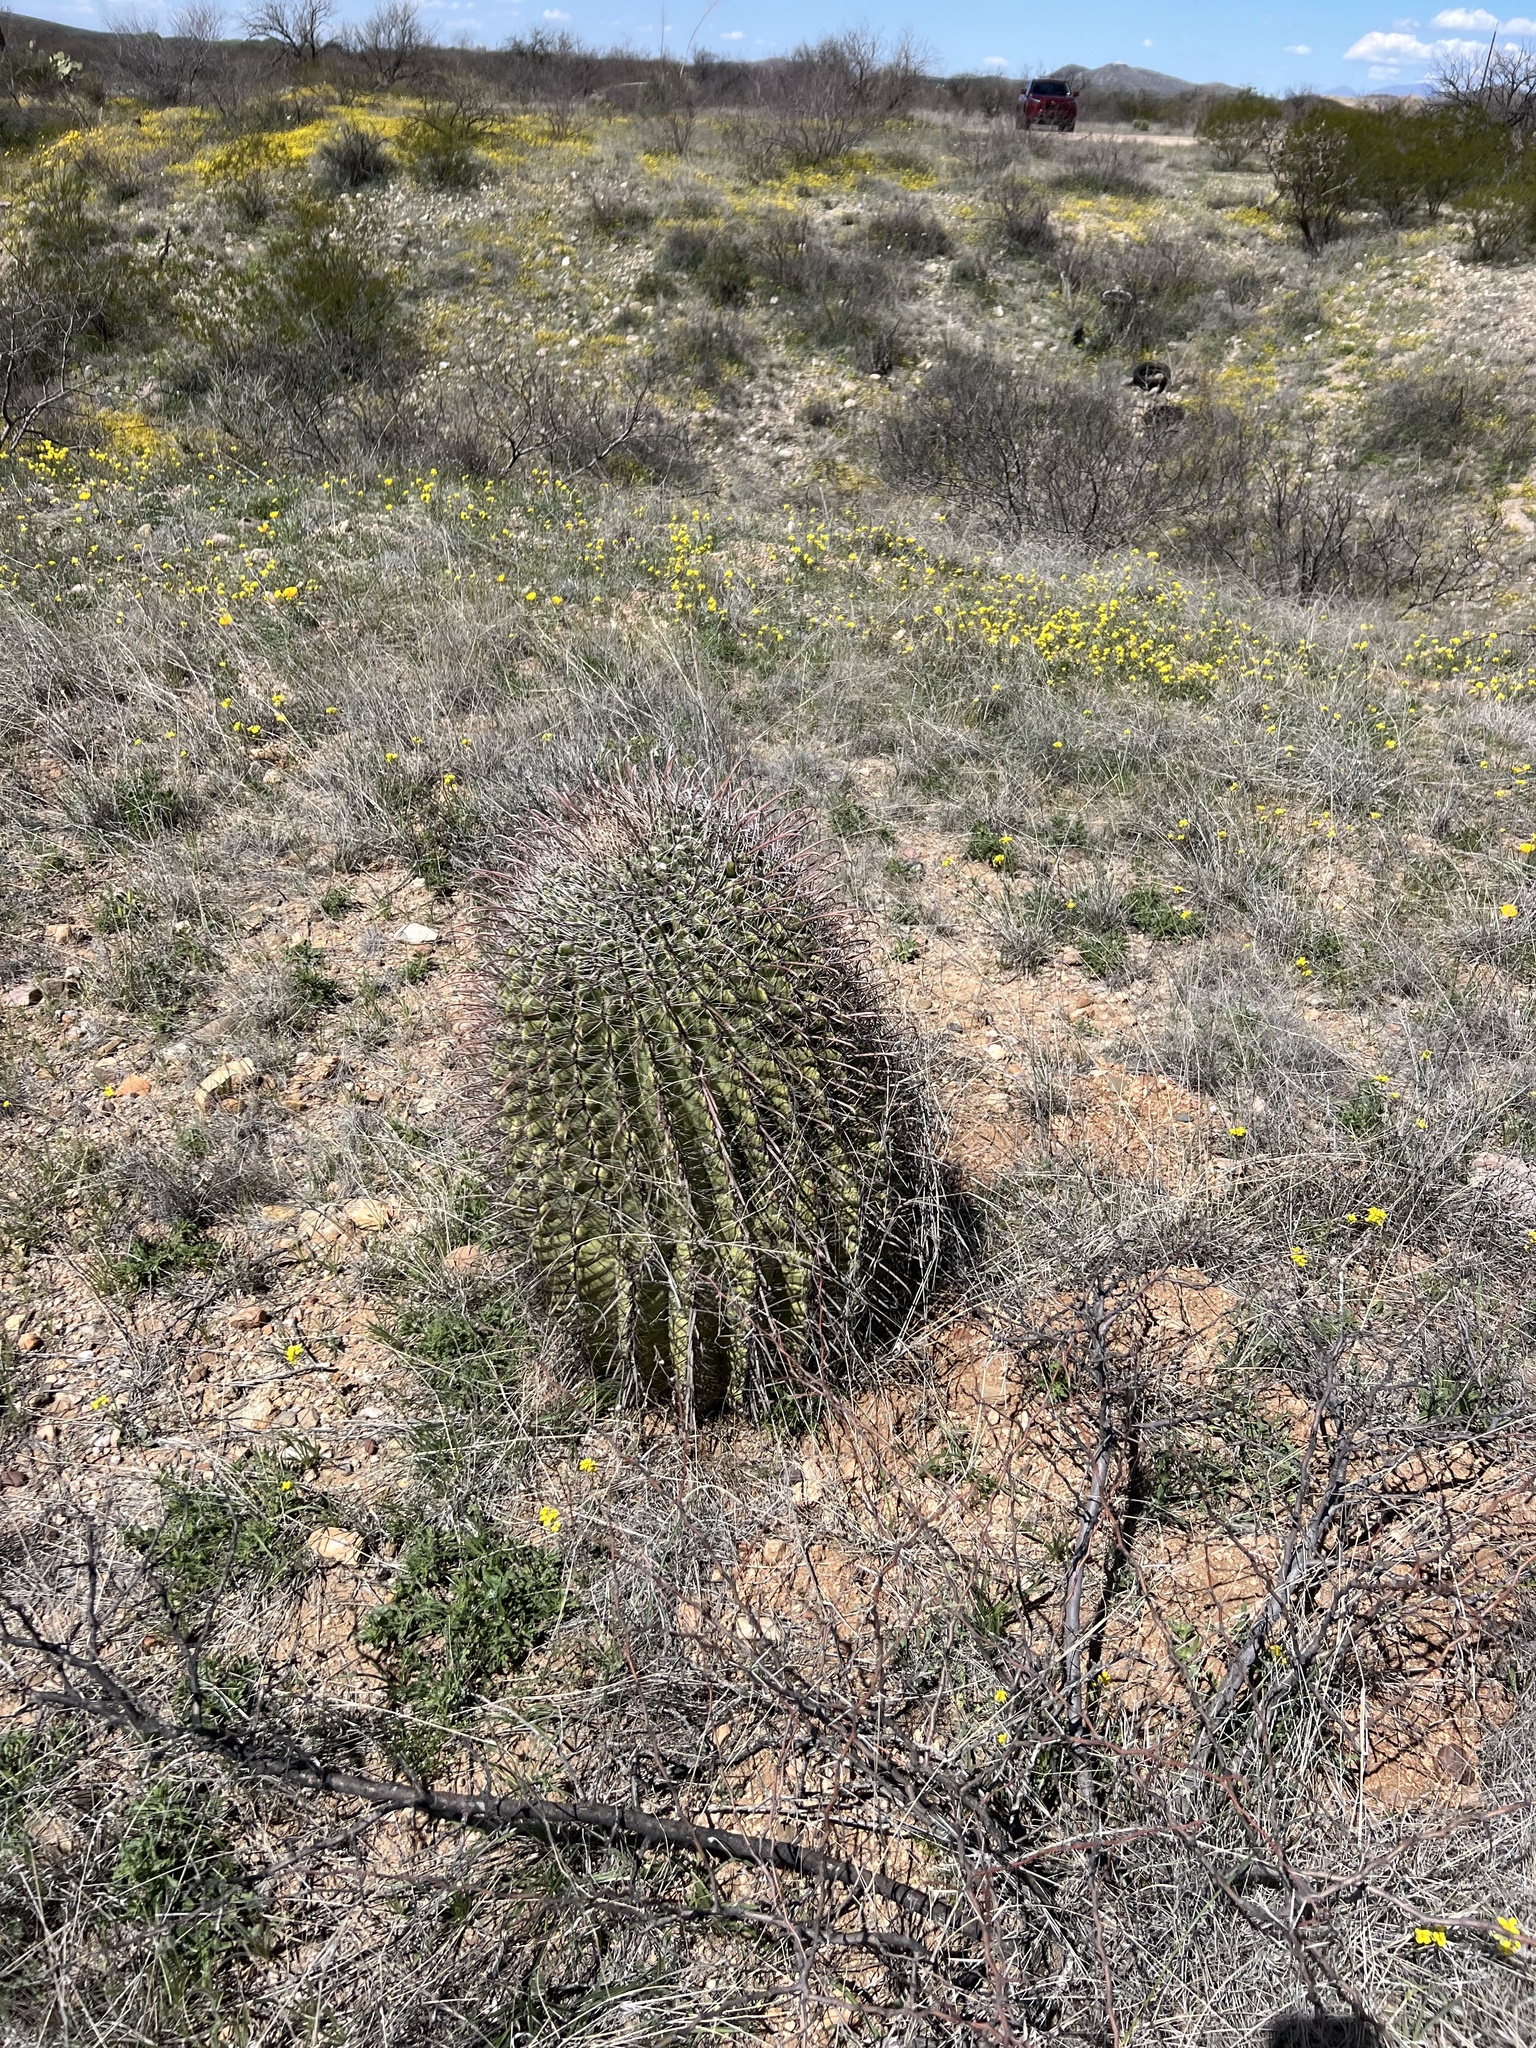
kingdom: Plantae
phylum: Tracheophyta
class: Magnoliopsida
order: Caryophyllales
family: Cactaceae
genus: Ferocactus
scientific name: Ferocactus wislizeni
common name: Candy barrel cactus
